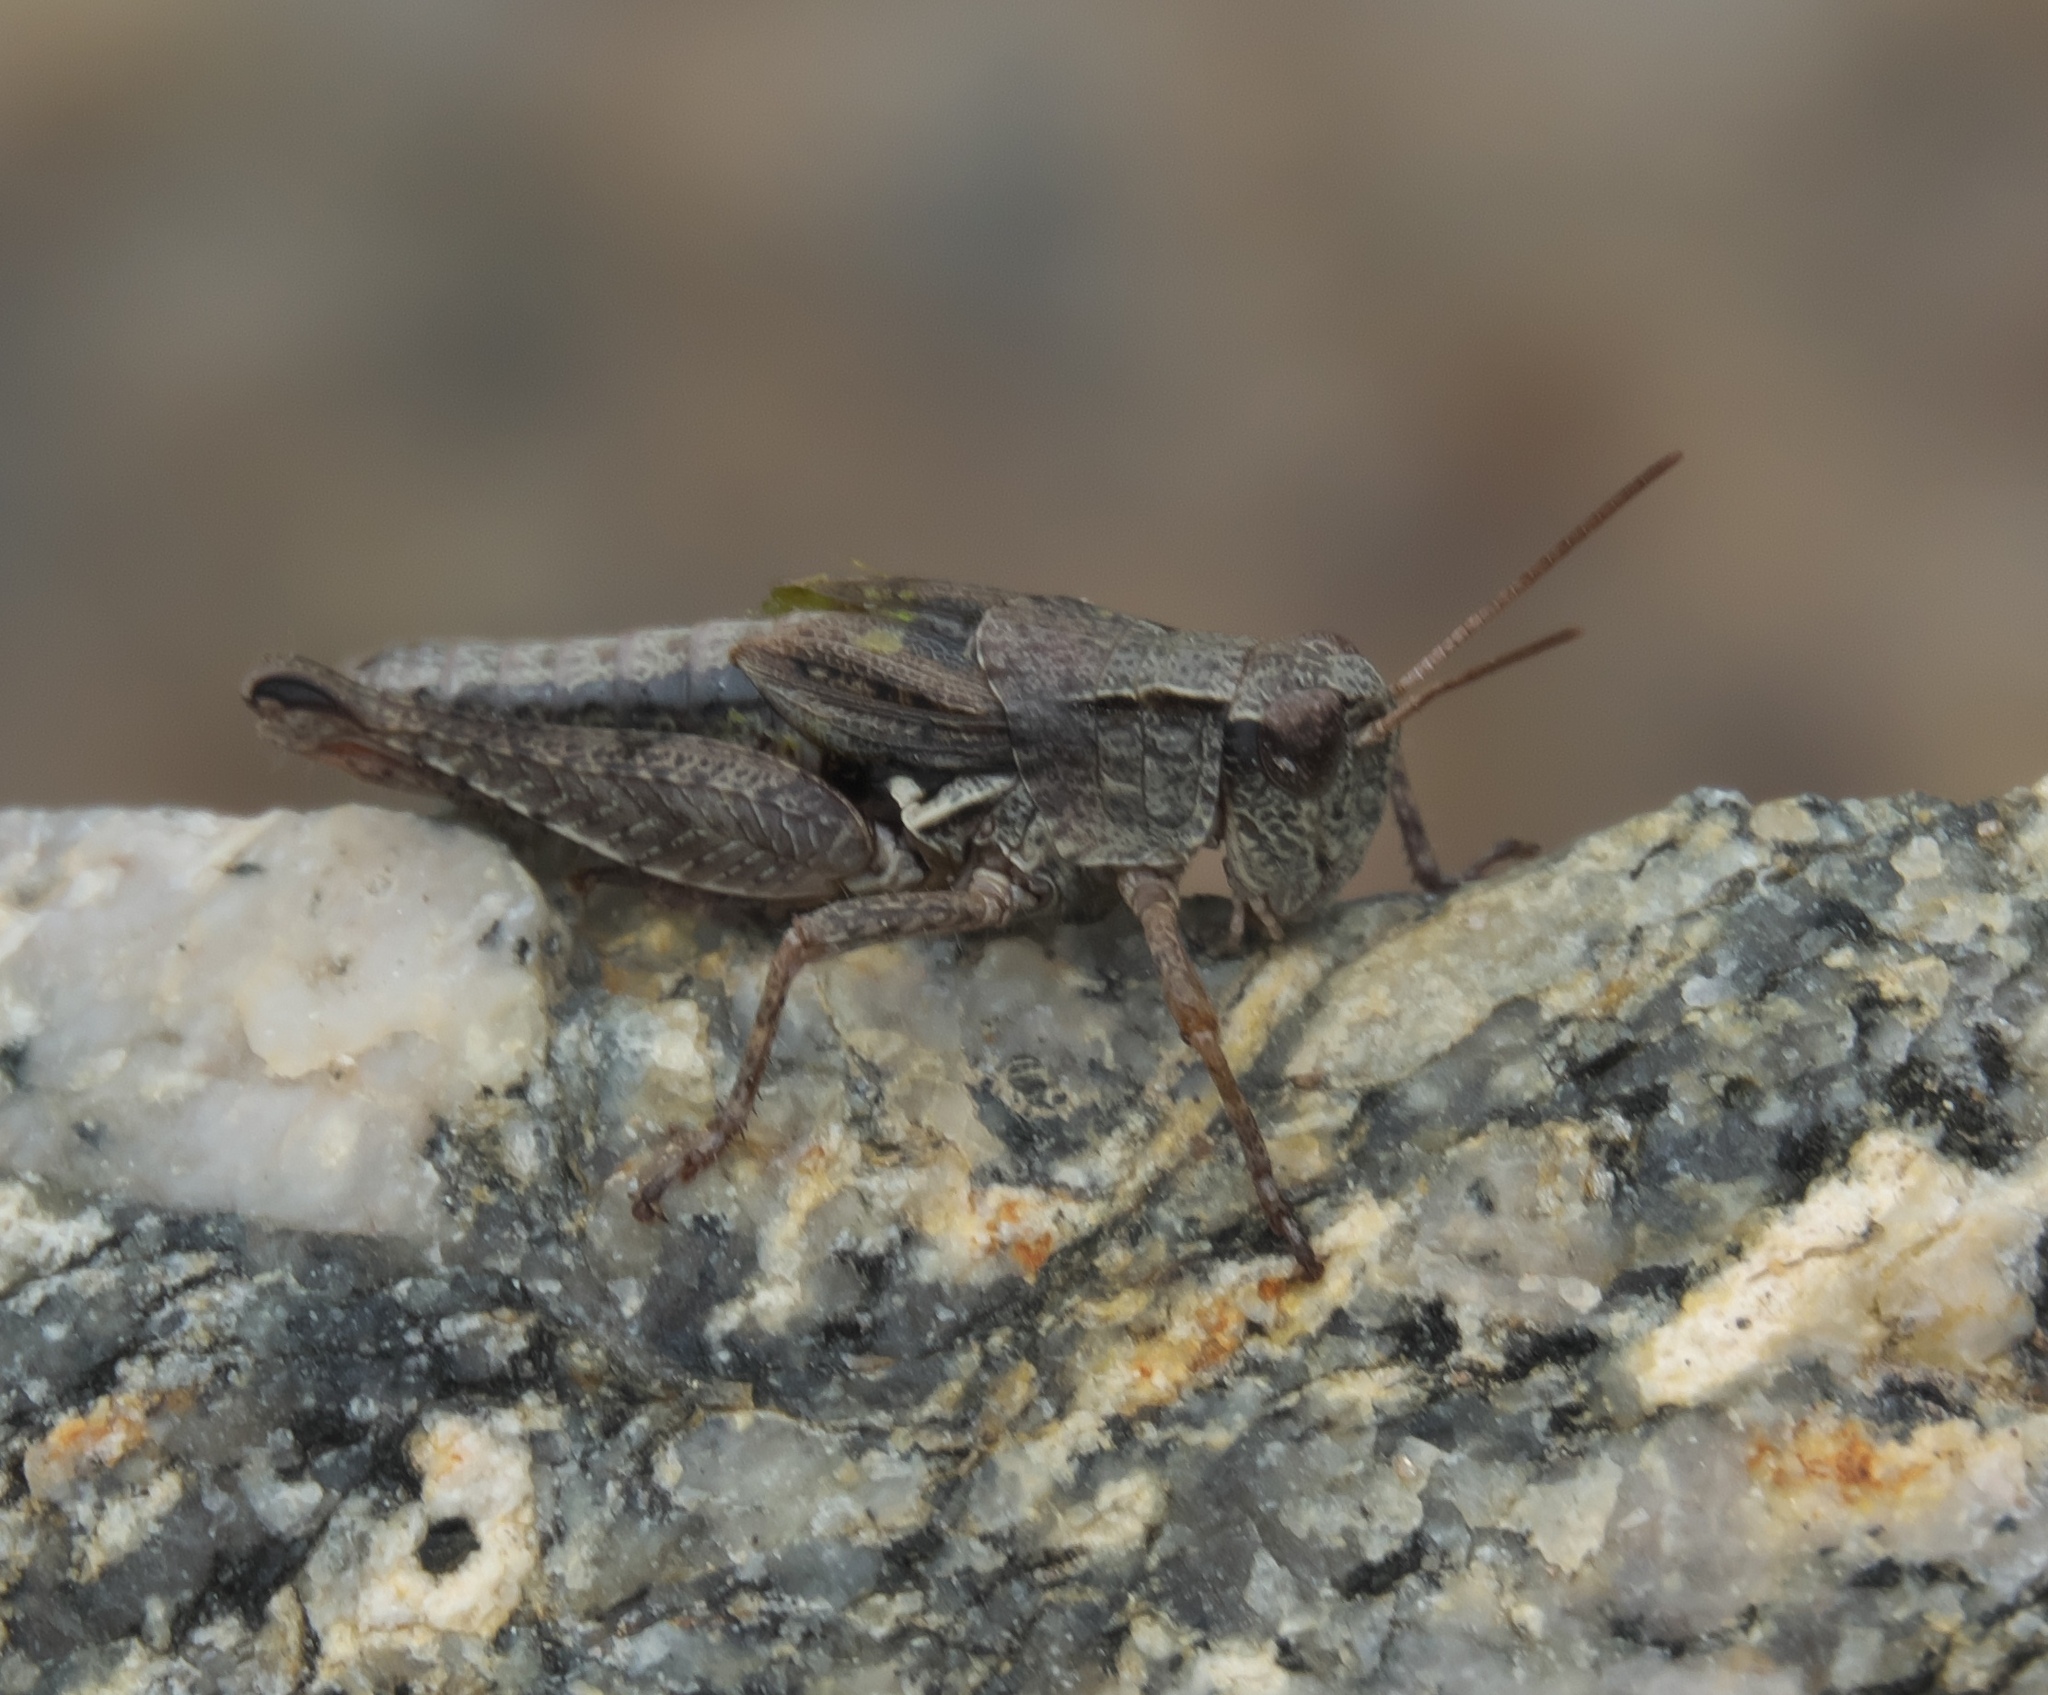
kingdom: Animalia
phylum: Arthropoda
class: Insecta
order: Orthoptera
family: Acrididae
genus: Phaulacridium
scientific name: Phaulacridium marginale
